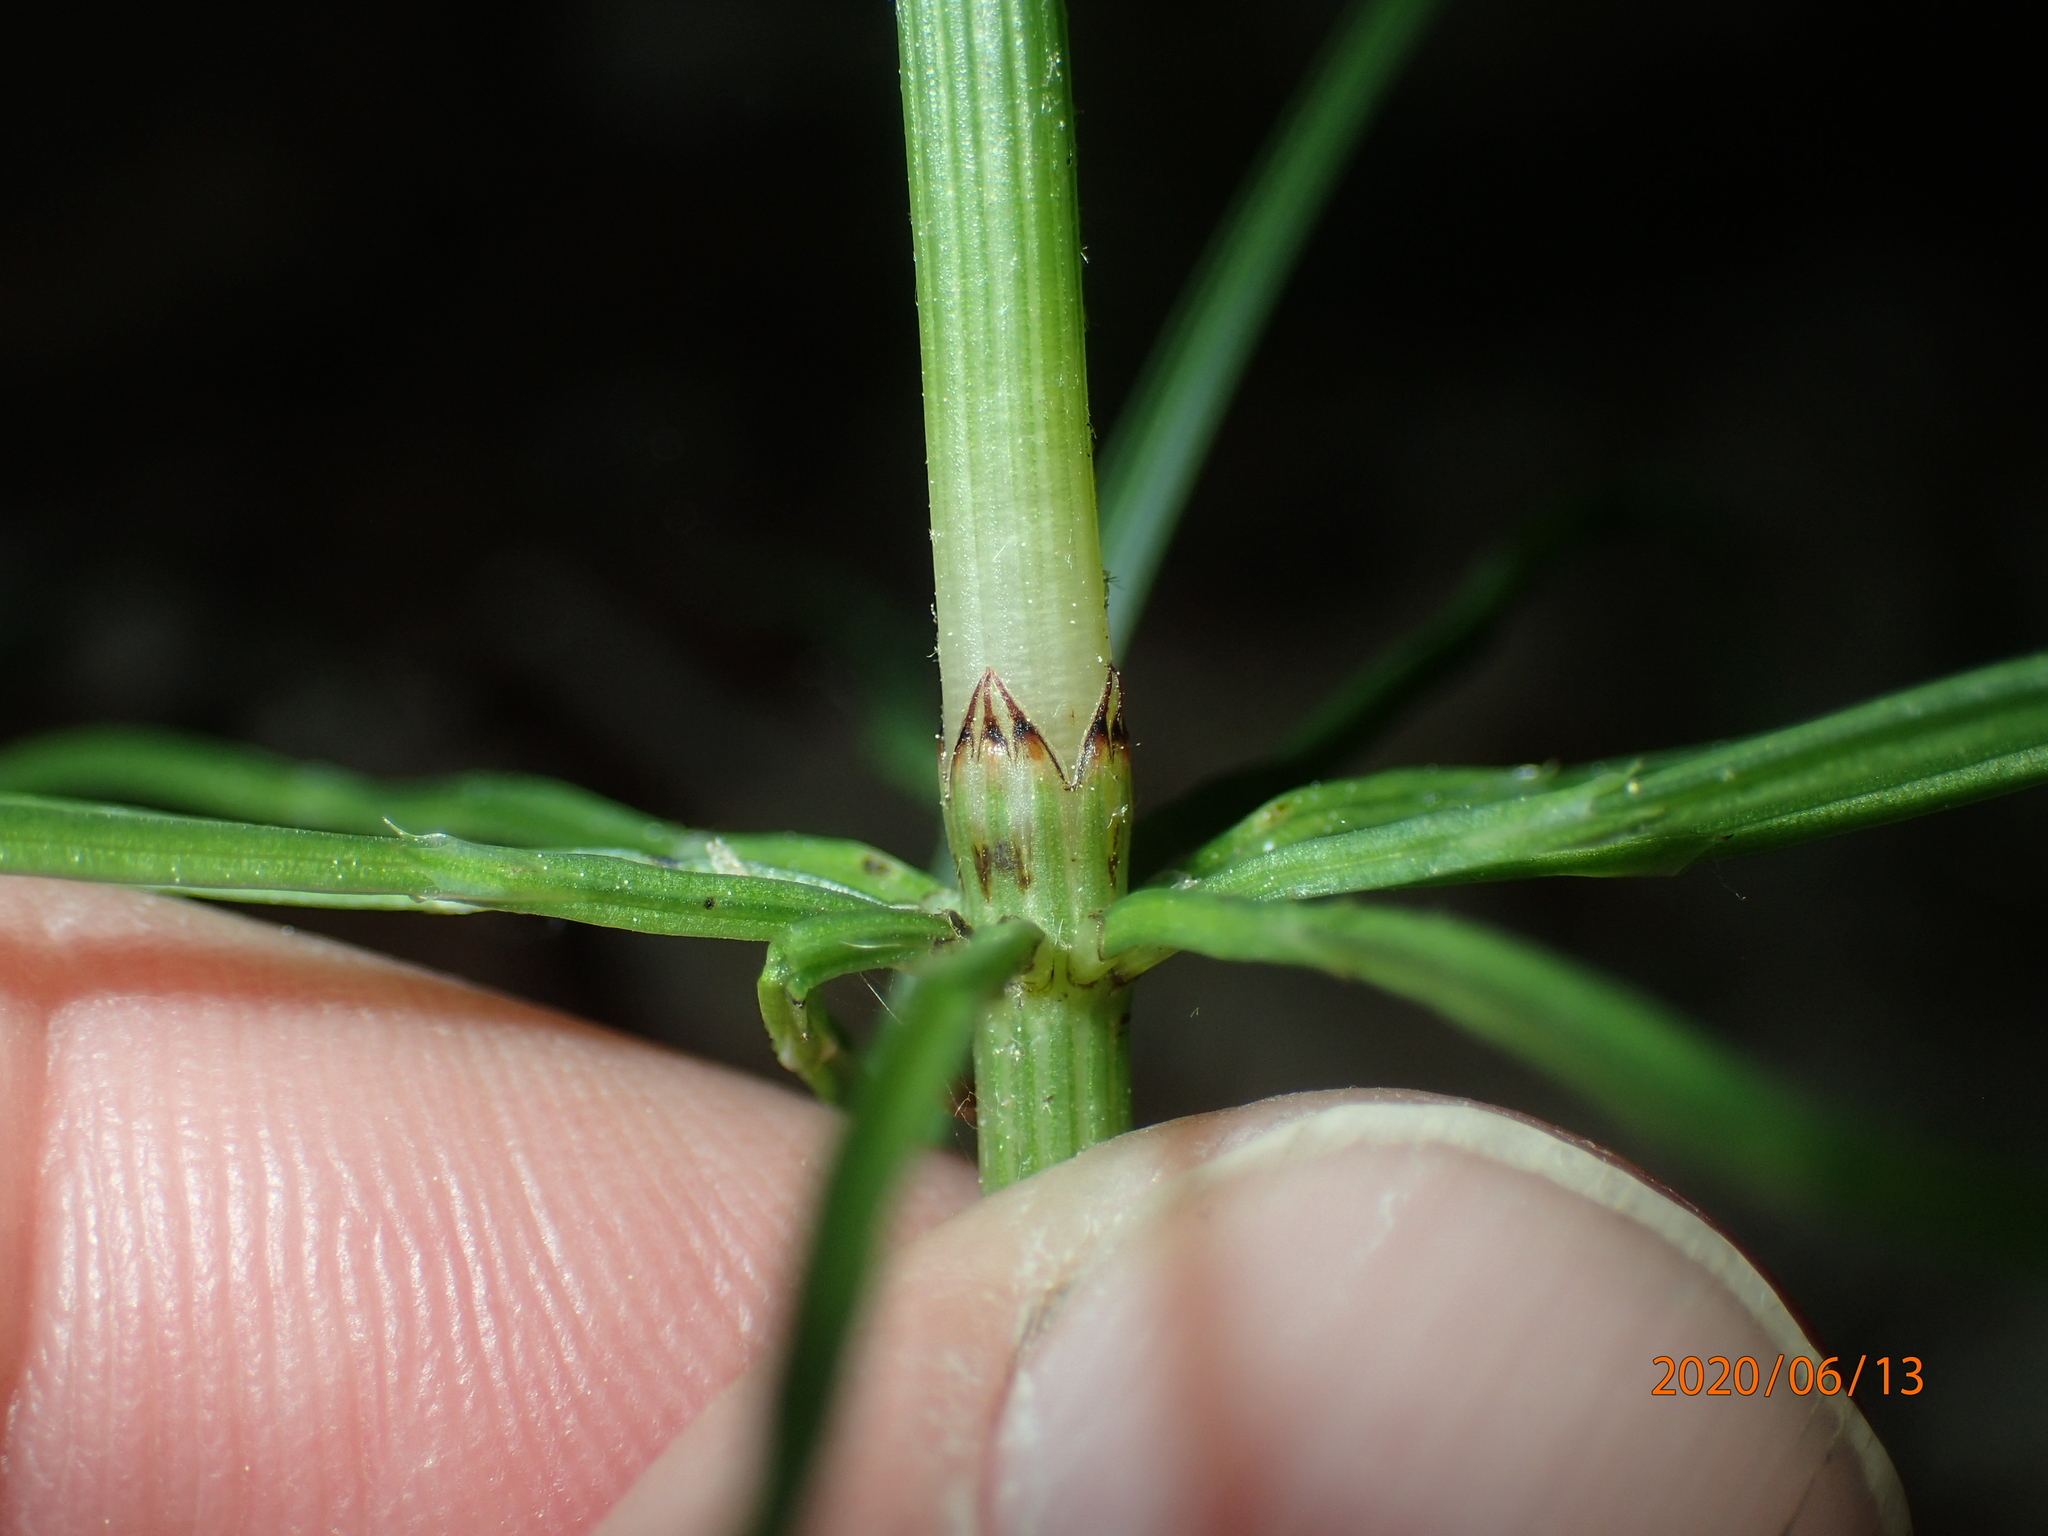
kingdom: Plantae
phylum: Tracheophyta
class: Polypodiopsida
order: Equisetales
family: Equisetaceae
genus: Equisetum
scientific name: Equisetum arvense
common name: Field horsetail
